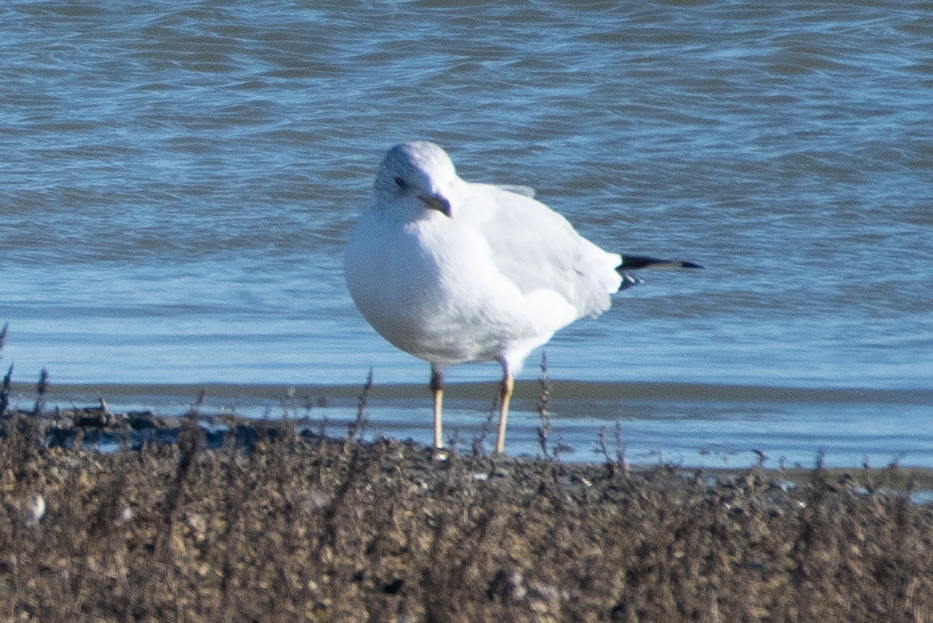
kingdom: Animalia
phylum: Chordata
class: Aves
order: Charadriiformes
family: Laridae
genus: Larus
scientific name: Larus delawarensis
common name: Ring-billed gull
